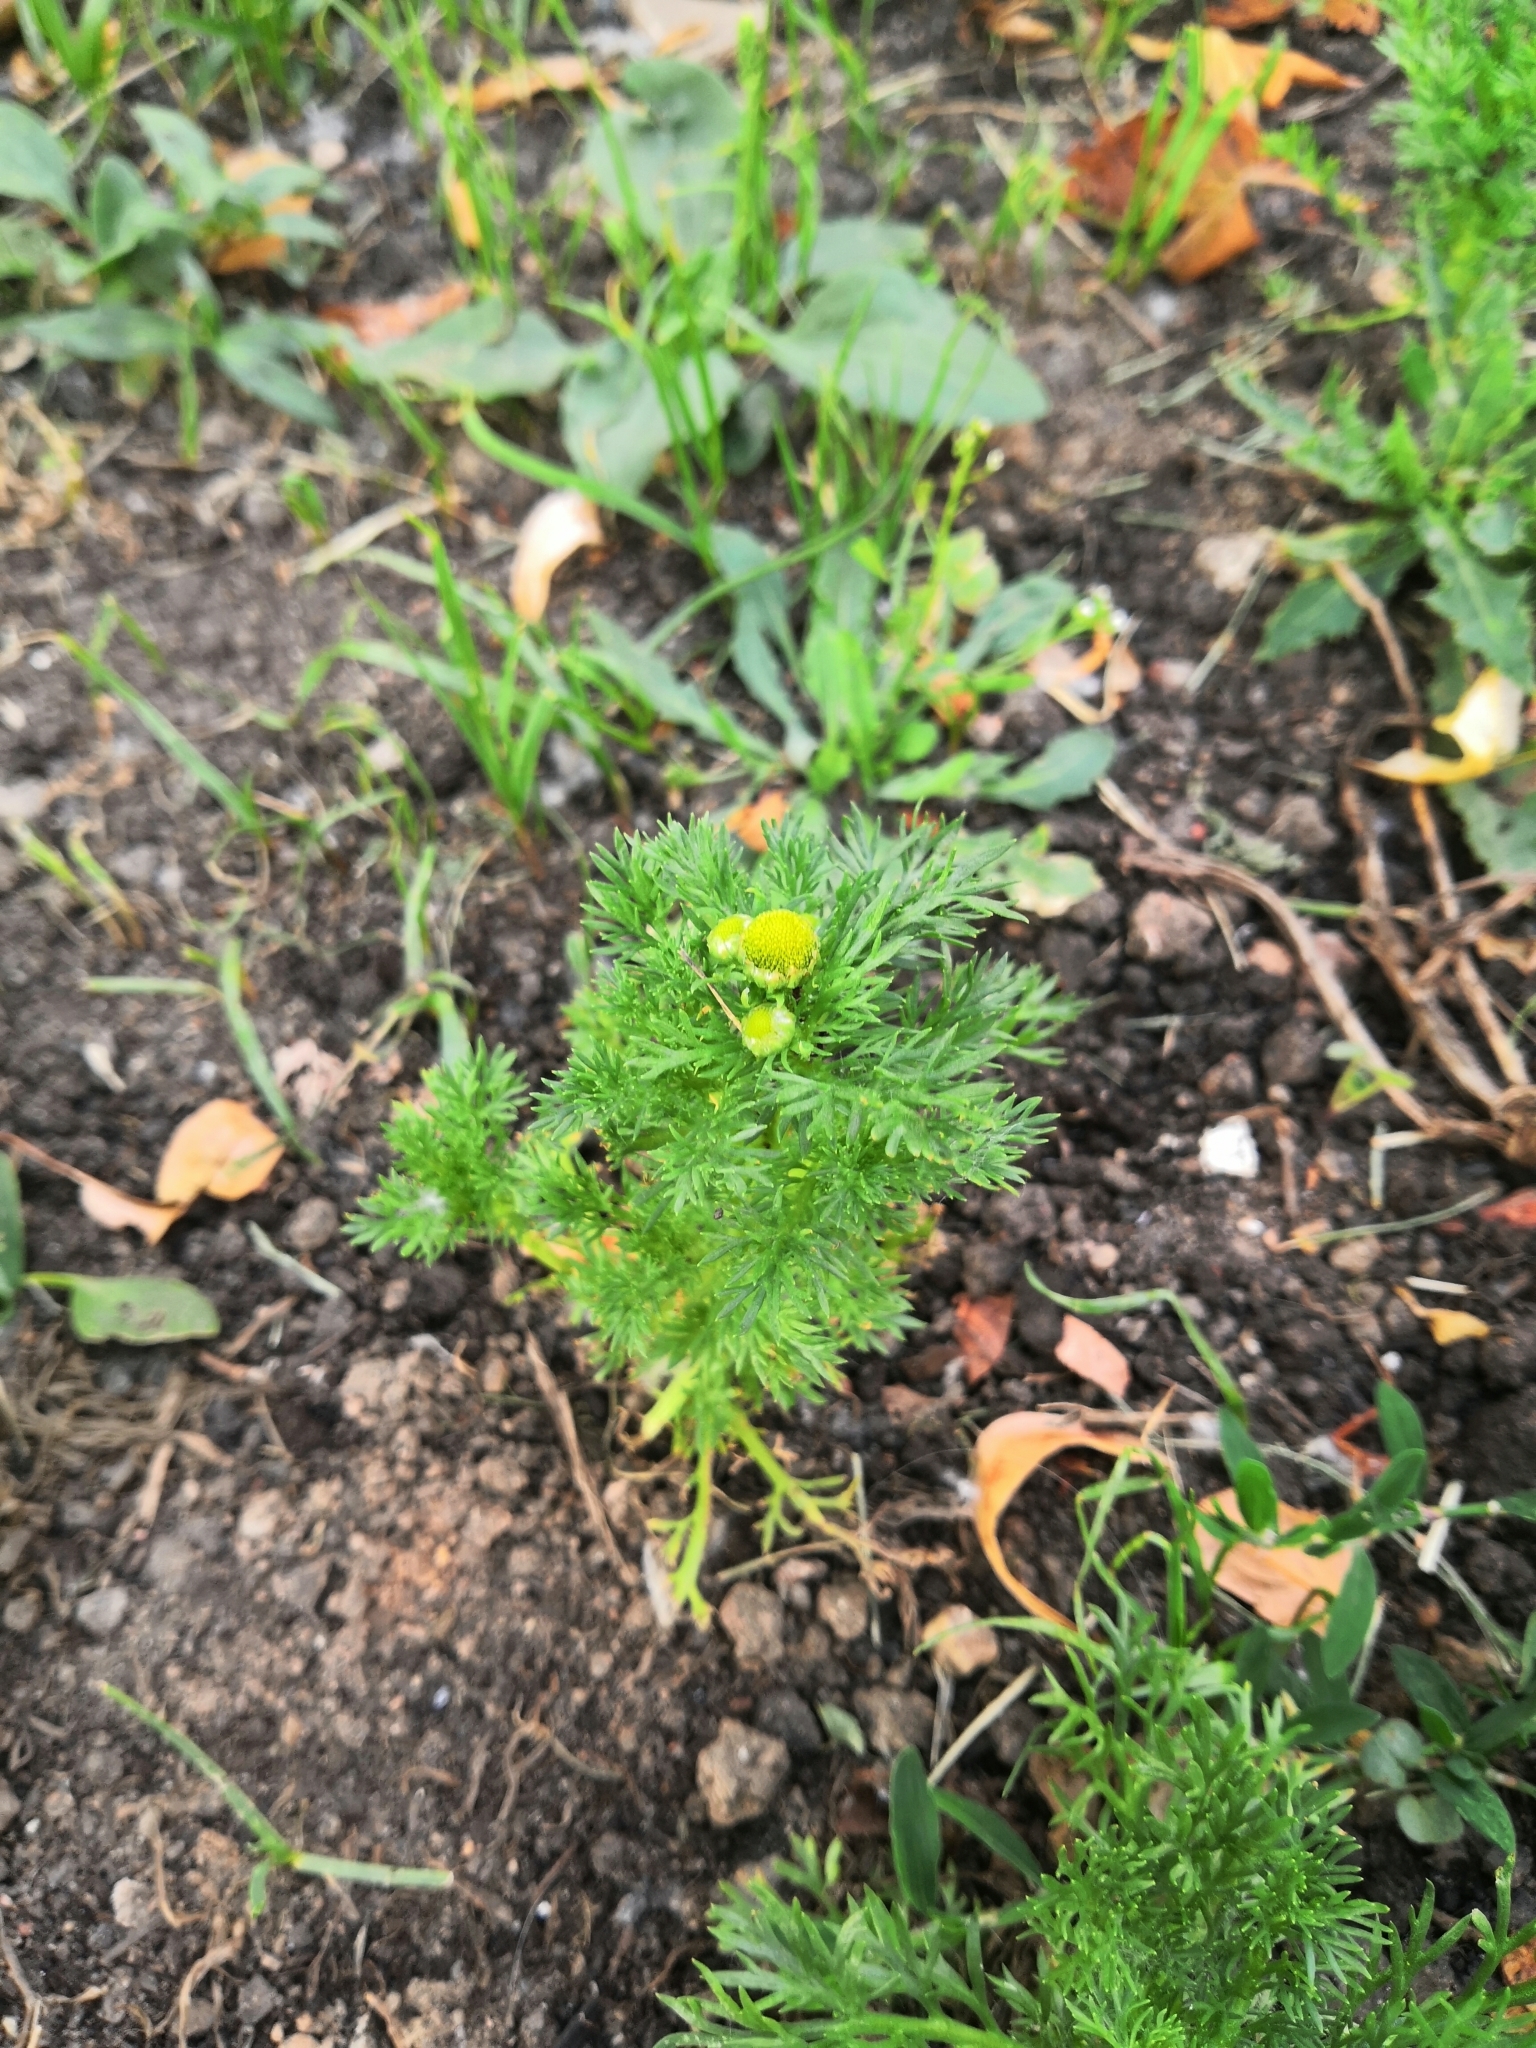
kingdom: Plantae
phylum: Tracheophyta
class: Magnoliopsida
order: Asterales
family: Asteraceae
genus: Matricaria
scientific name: Matricaria discoidea
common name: Disc mayweed
